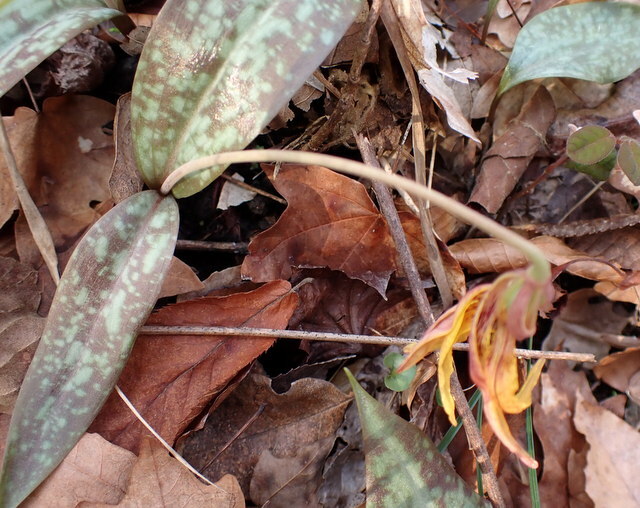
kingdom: Plantae
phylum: Tracheophyta
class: Liliopsida
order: Liliales
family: Liliaceae
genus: Erythronium
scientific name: Erythronium umbilicatum
